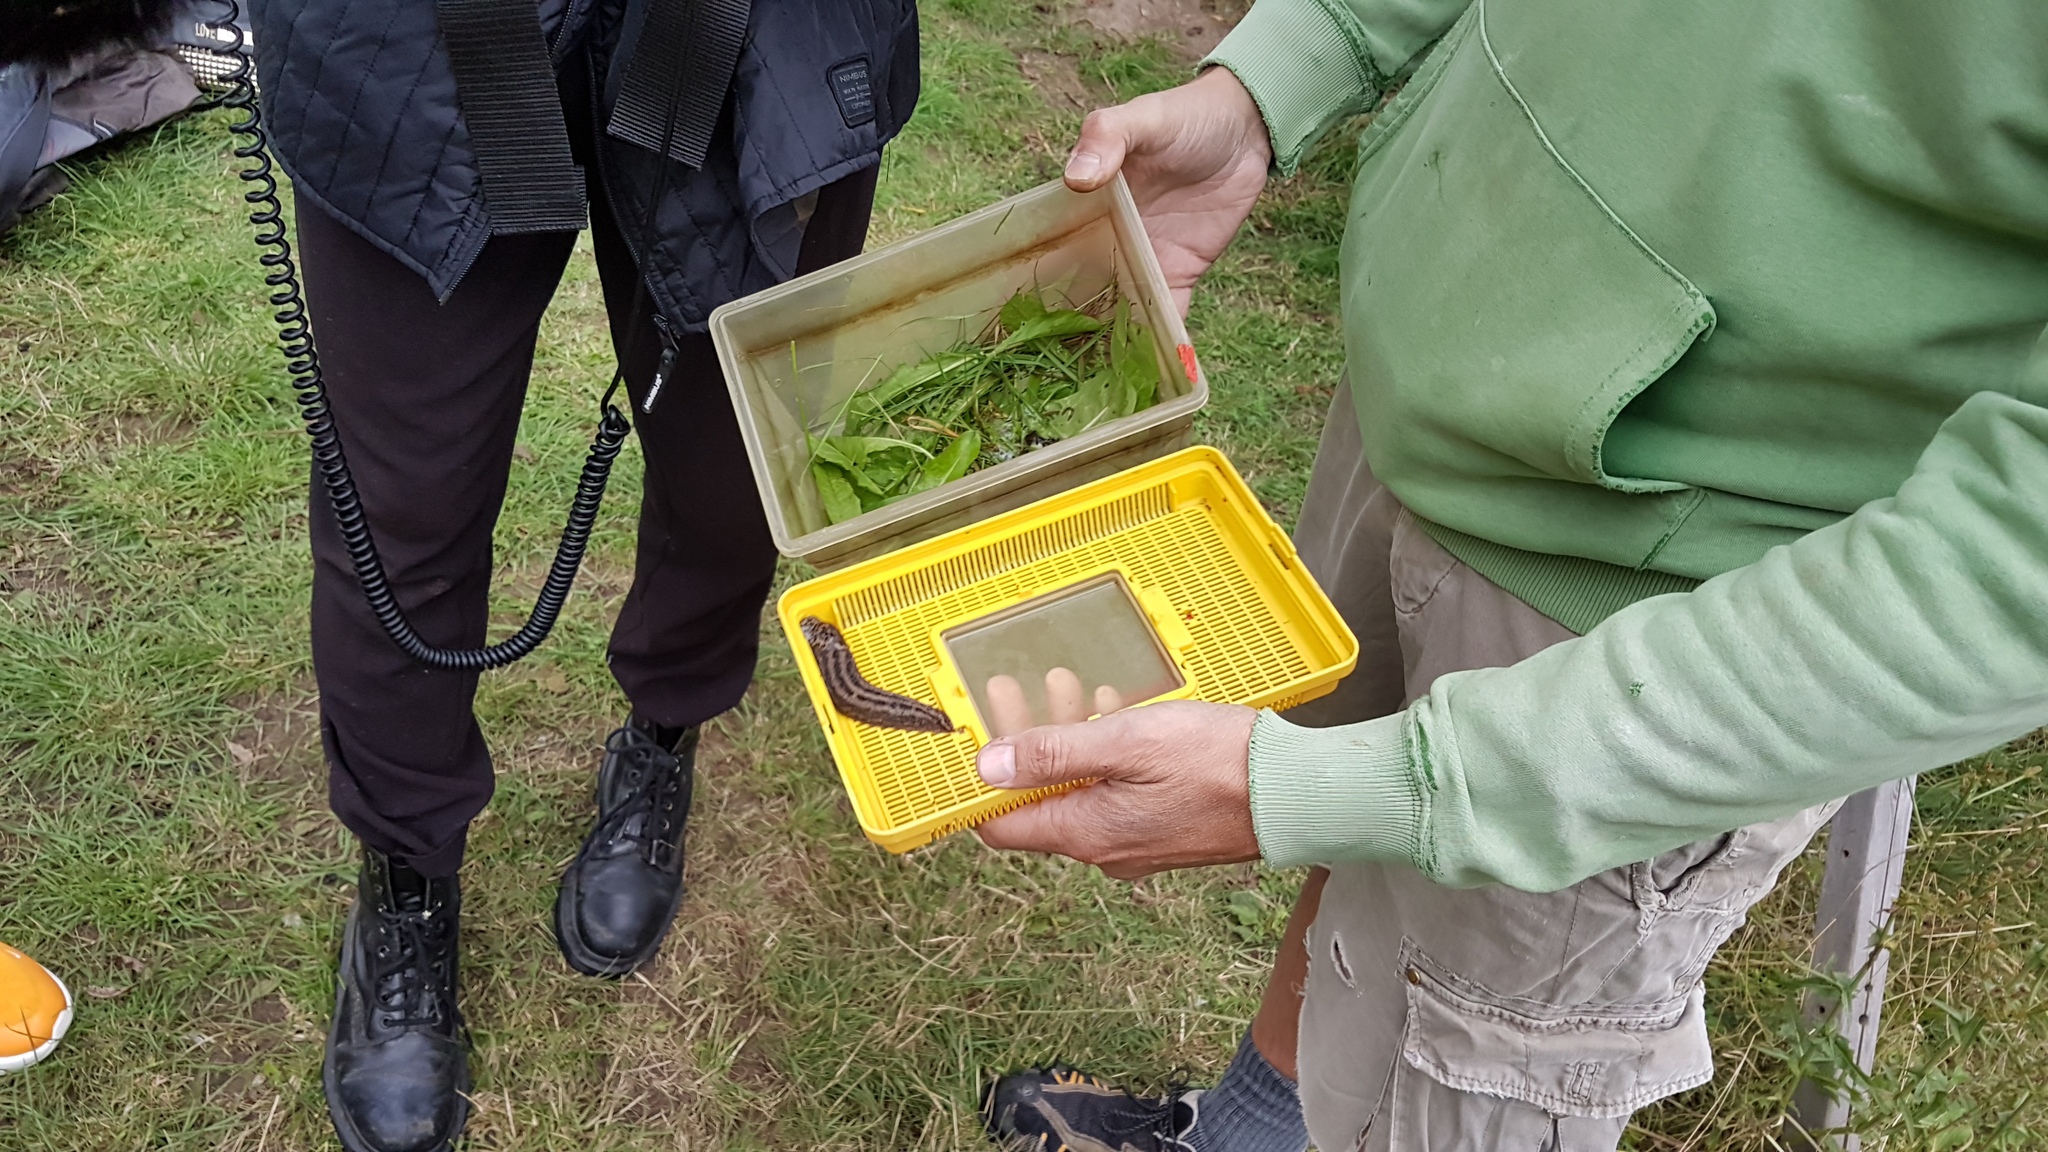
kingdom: Animalia
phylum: Mollusca
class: Gastropoda
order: Stylommatophora
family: Limacidae
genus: Limax
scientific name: Limax maximus
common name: Great grey slug
